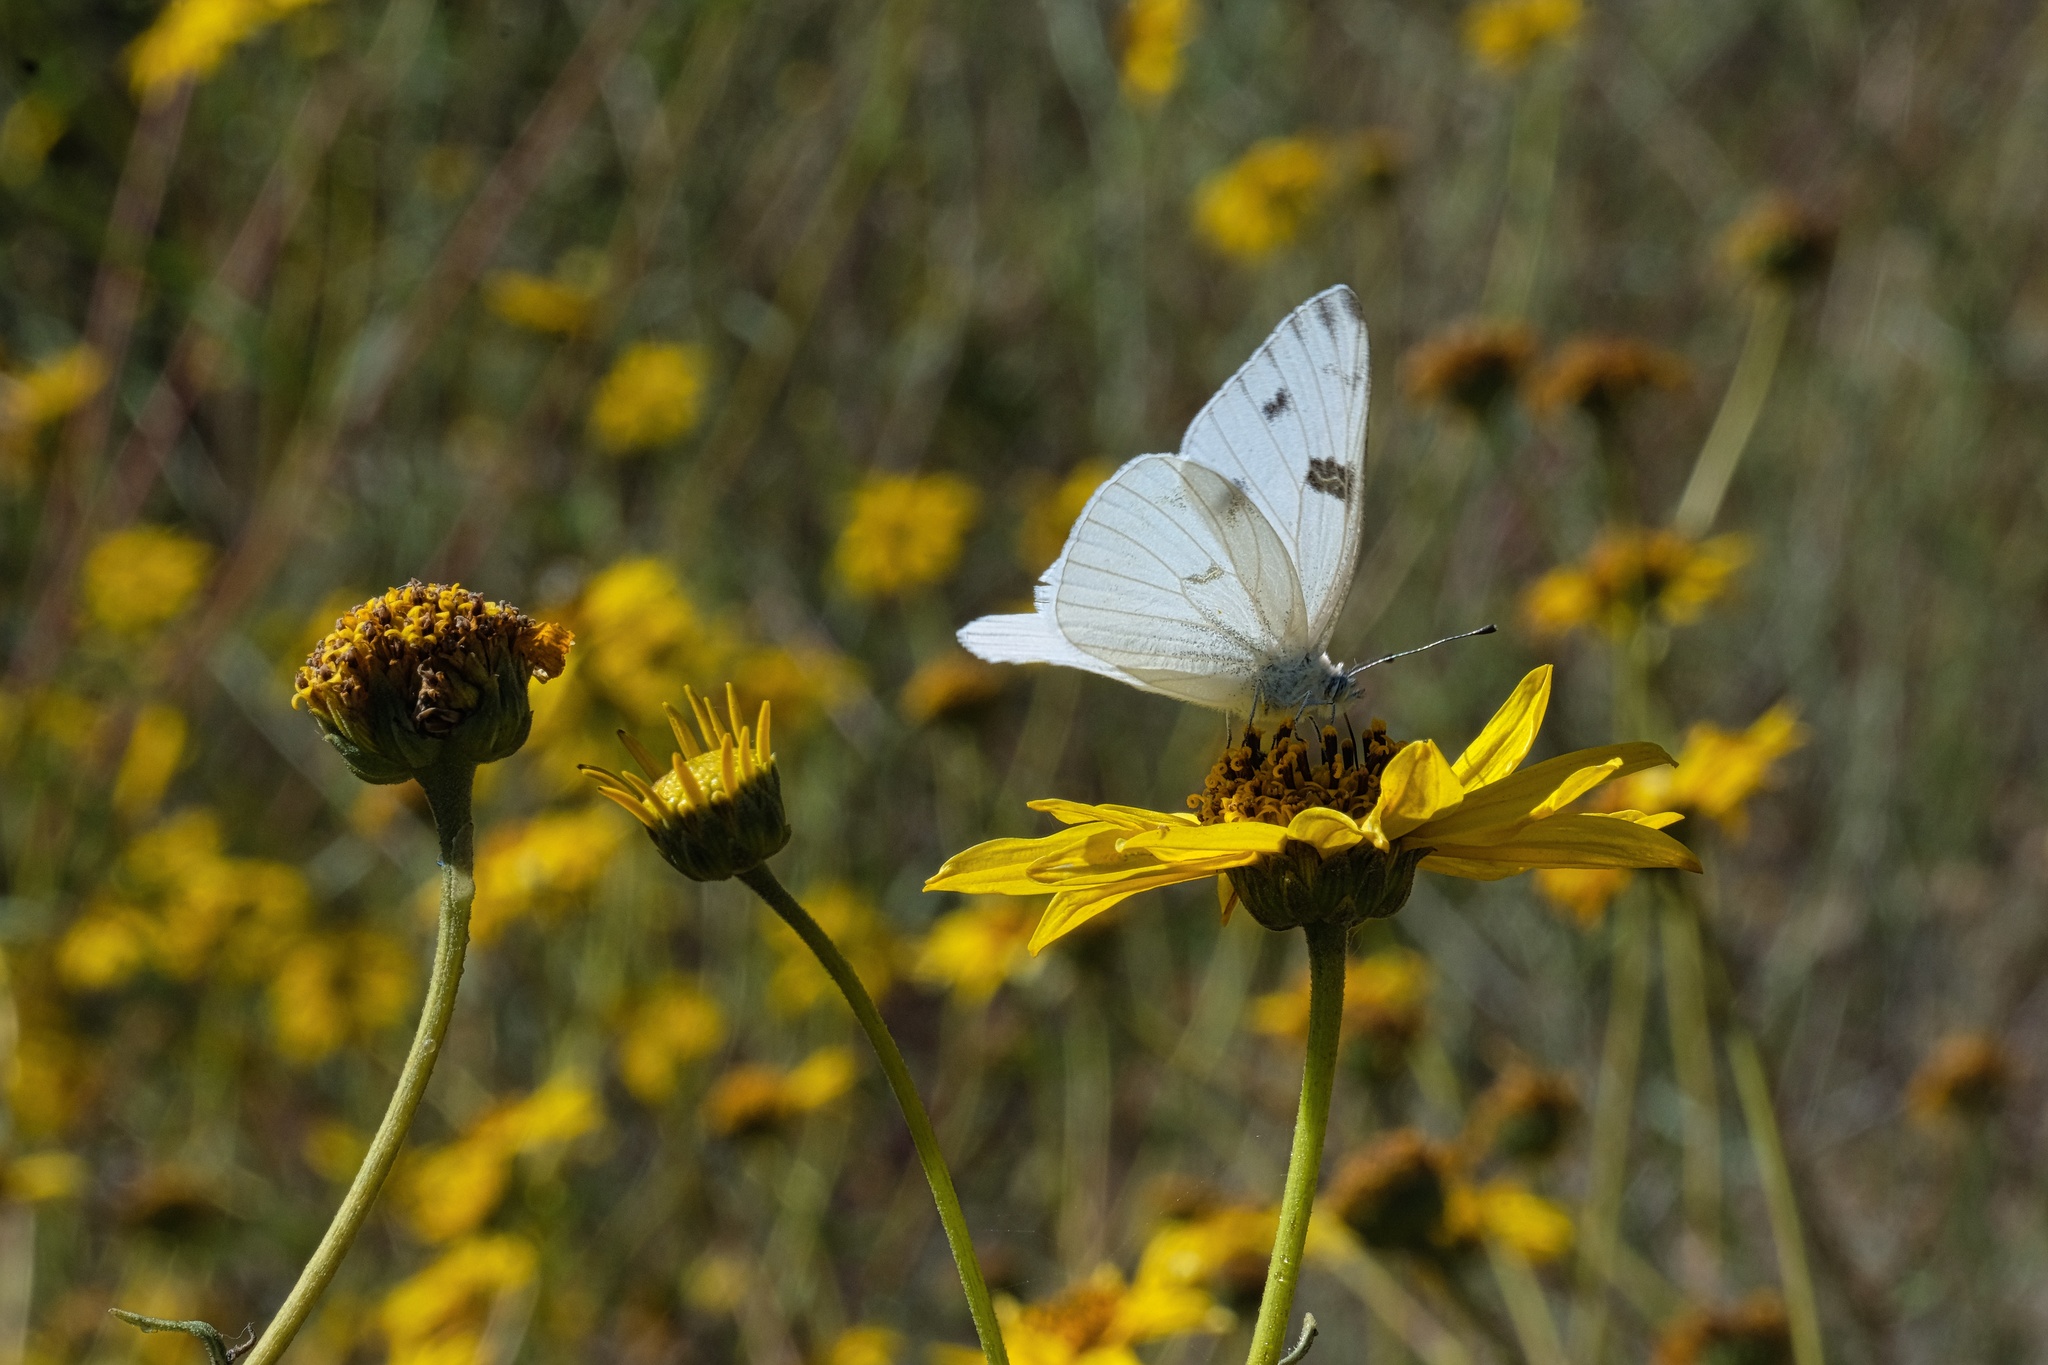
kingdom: Animalia
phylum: Arthropoda
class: Insecta
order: Lepidoptera
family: Pieridae
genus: Pontia
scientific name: Pontia protodice
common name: Checkered white
